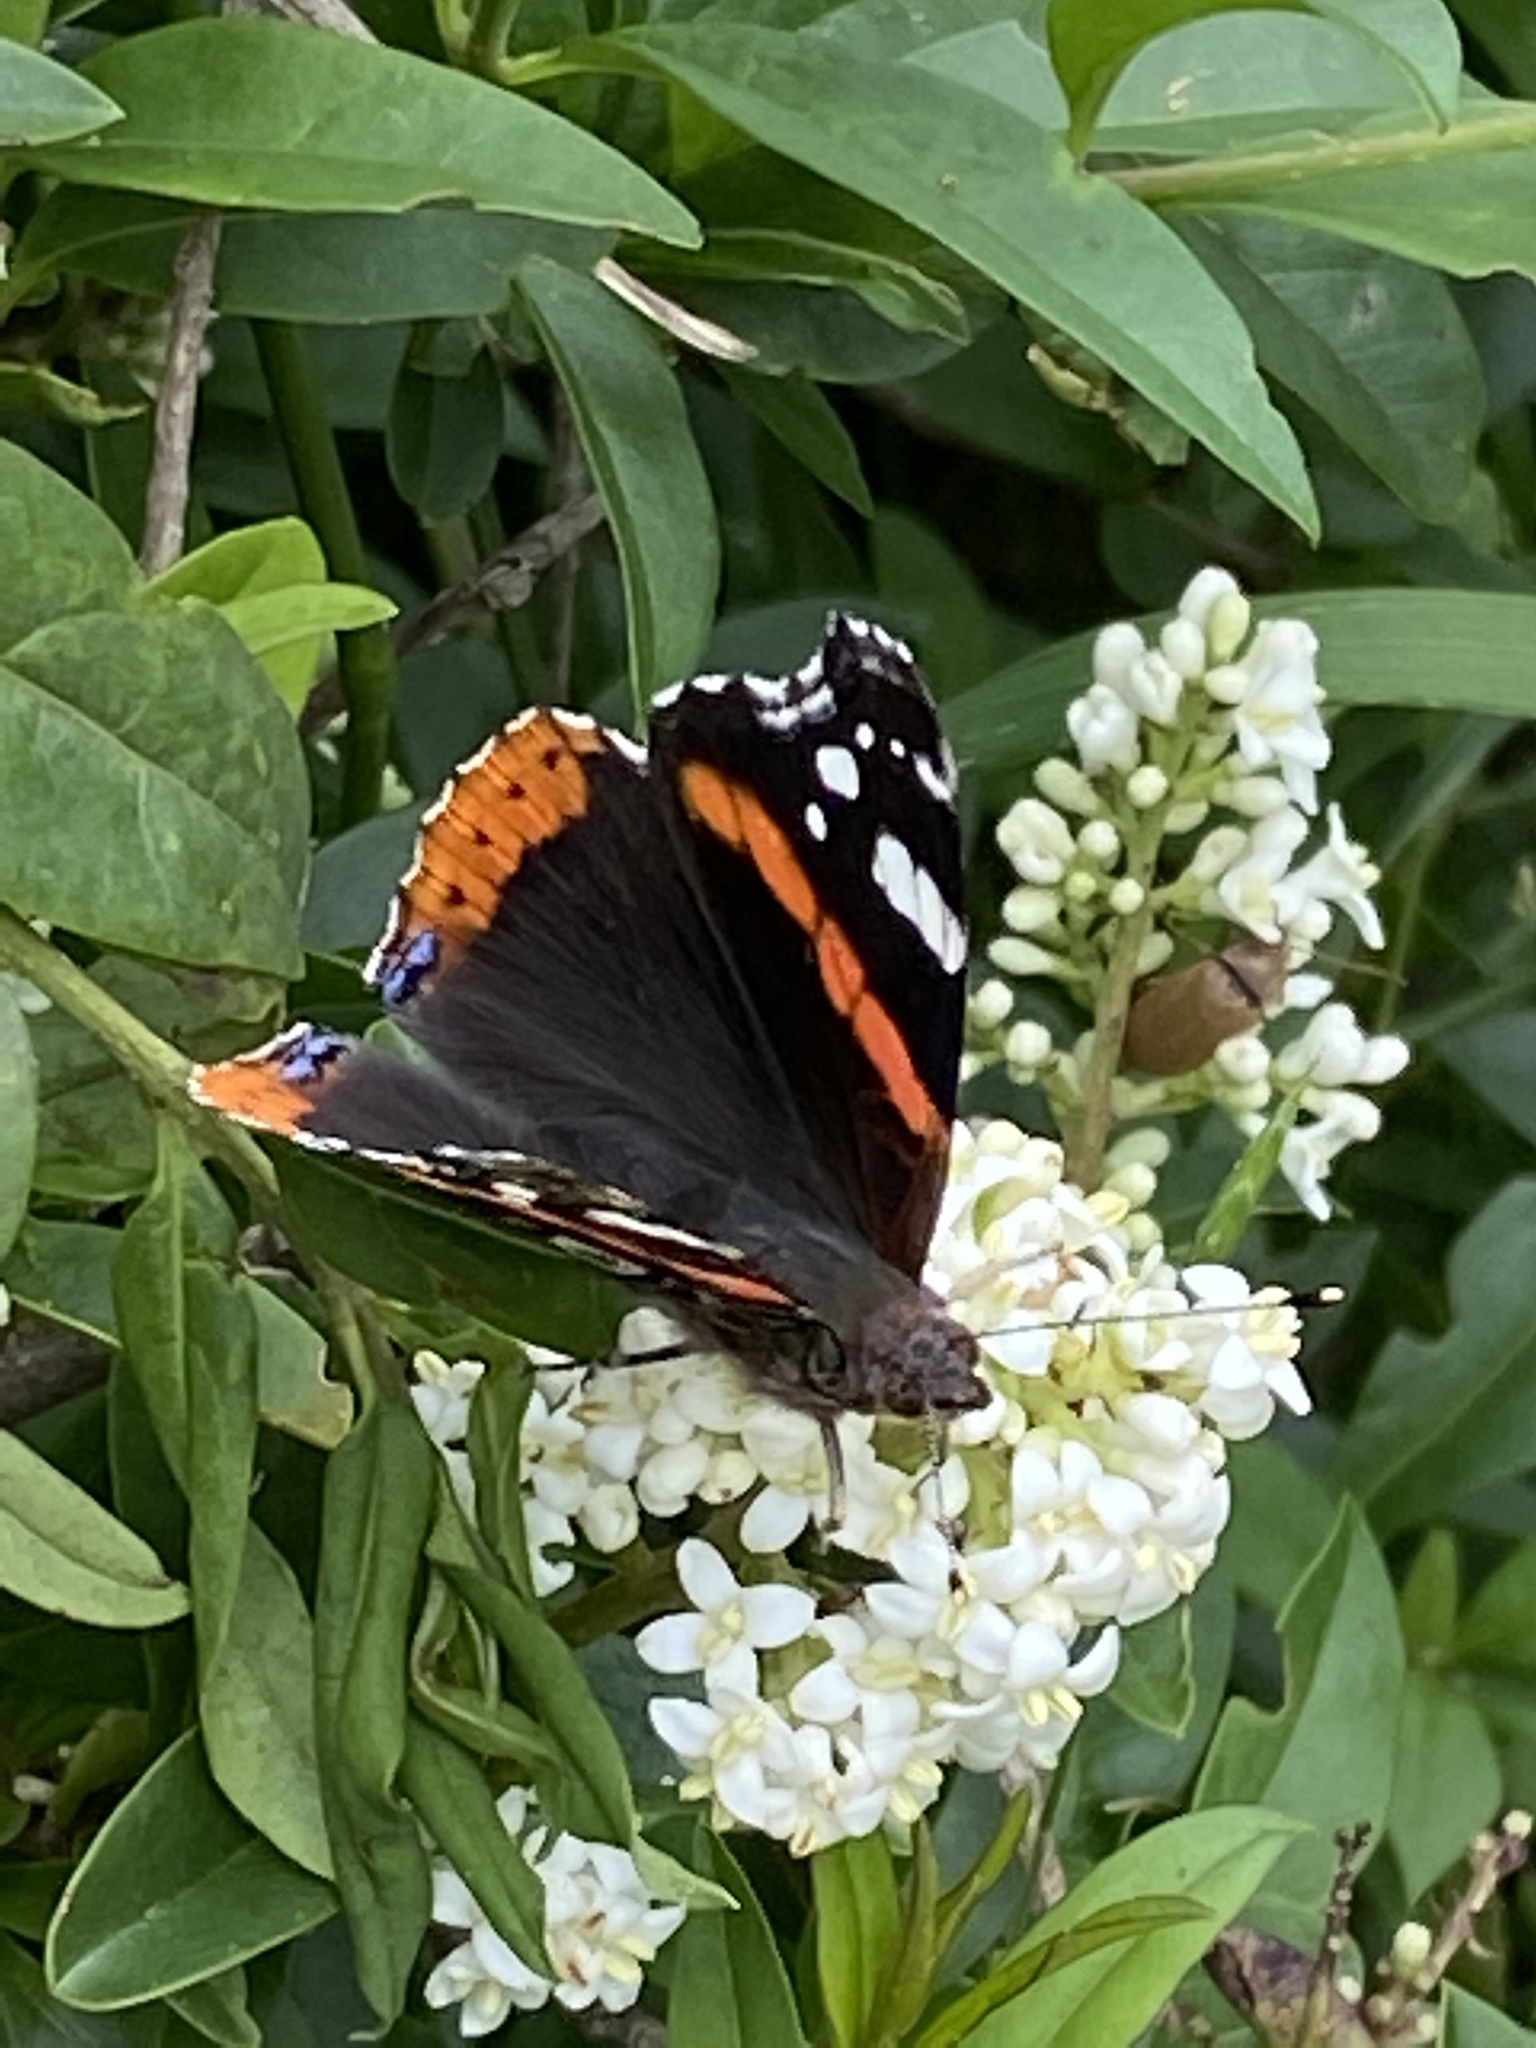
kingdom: Animalia
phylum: Arthropoda
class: Insecta
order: Lepidoptera
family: Nymphalidae
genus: Vanessa
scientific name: Vanessa atalanta
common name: Red admiral
